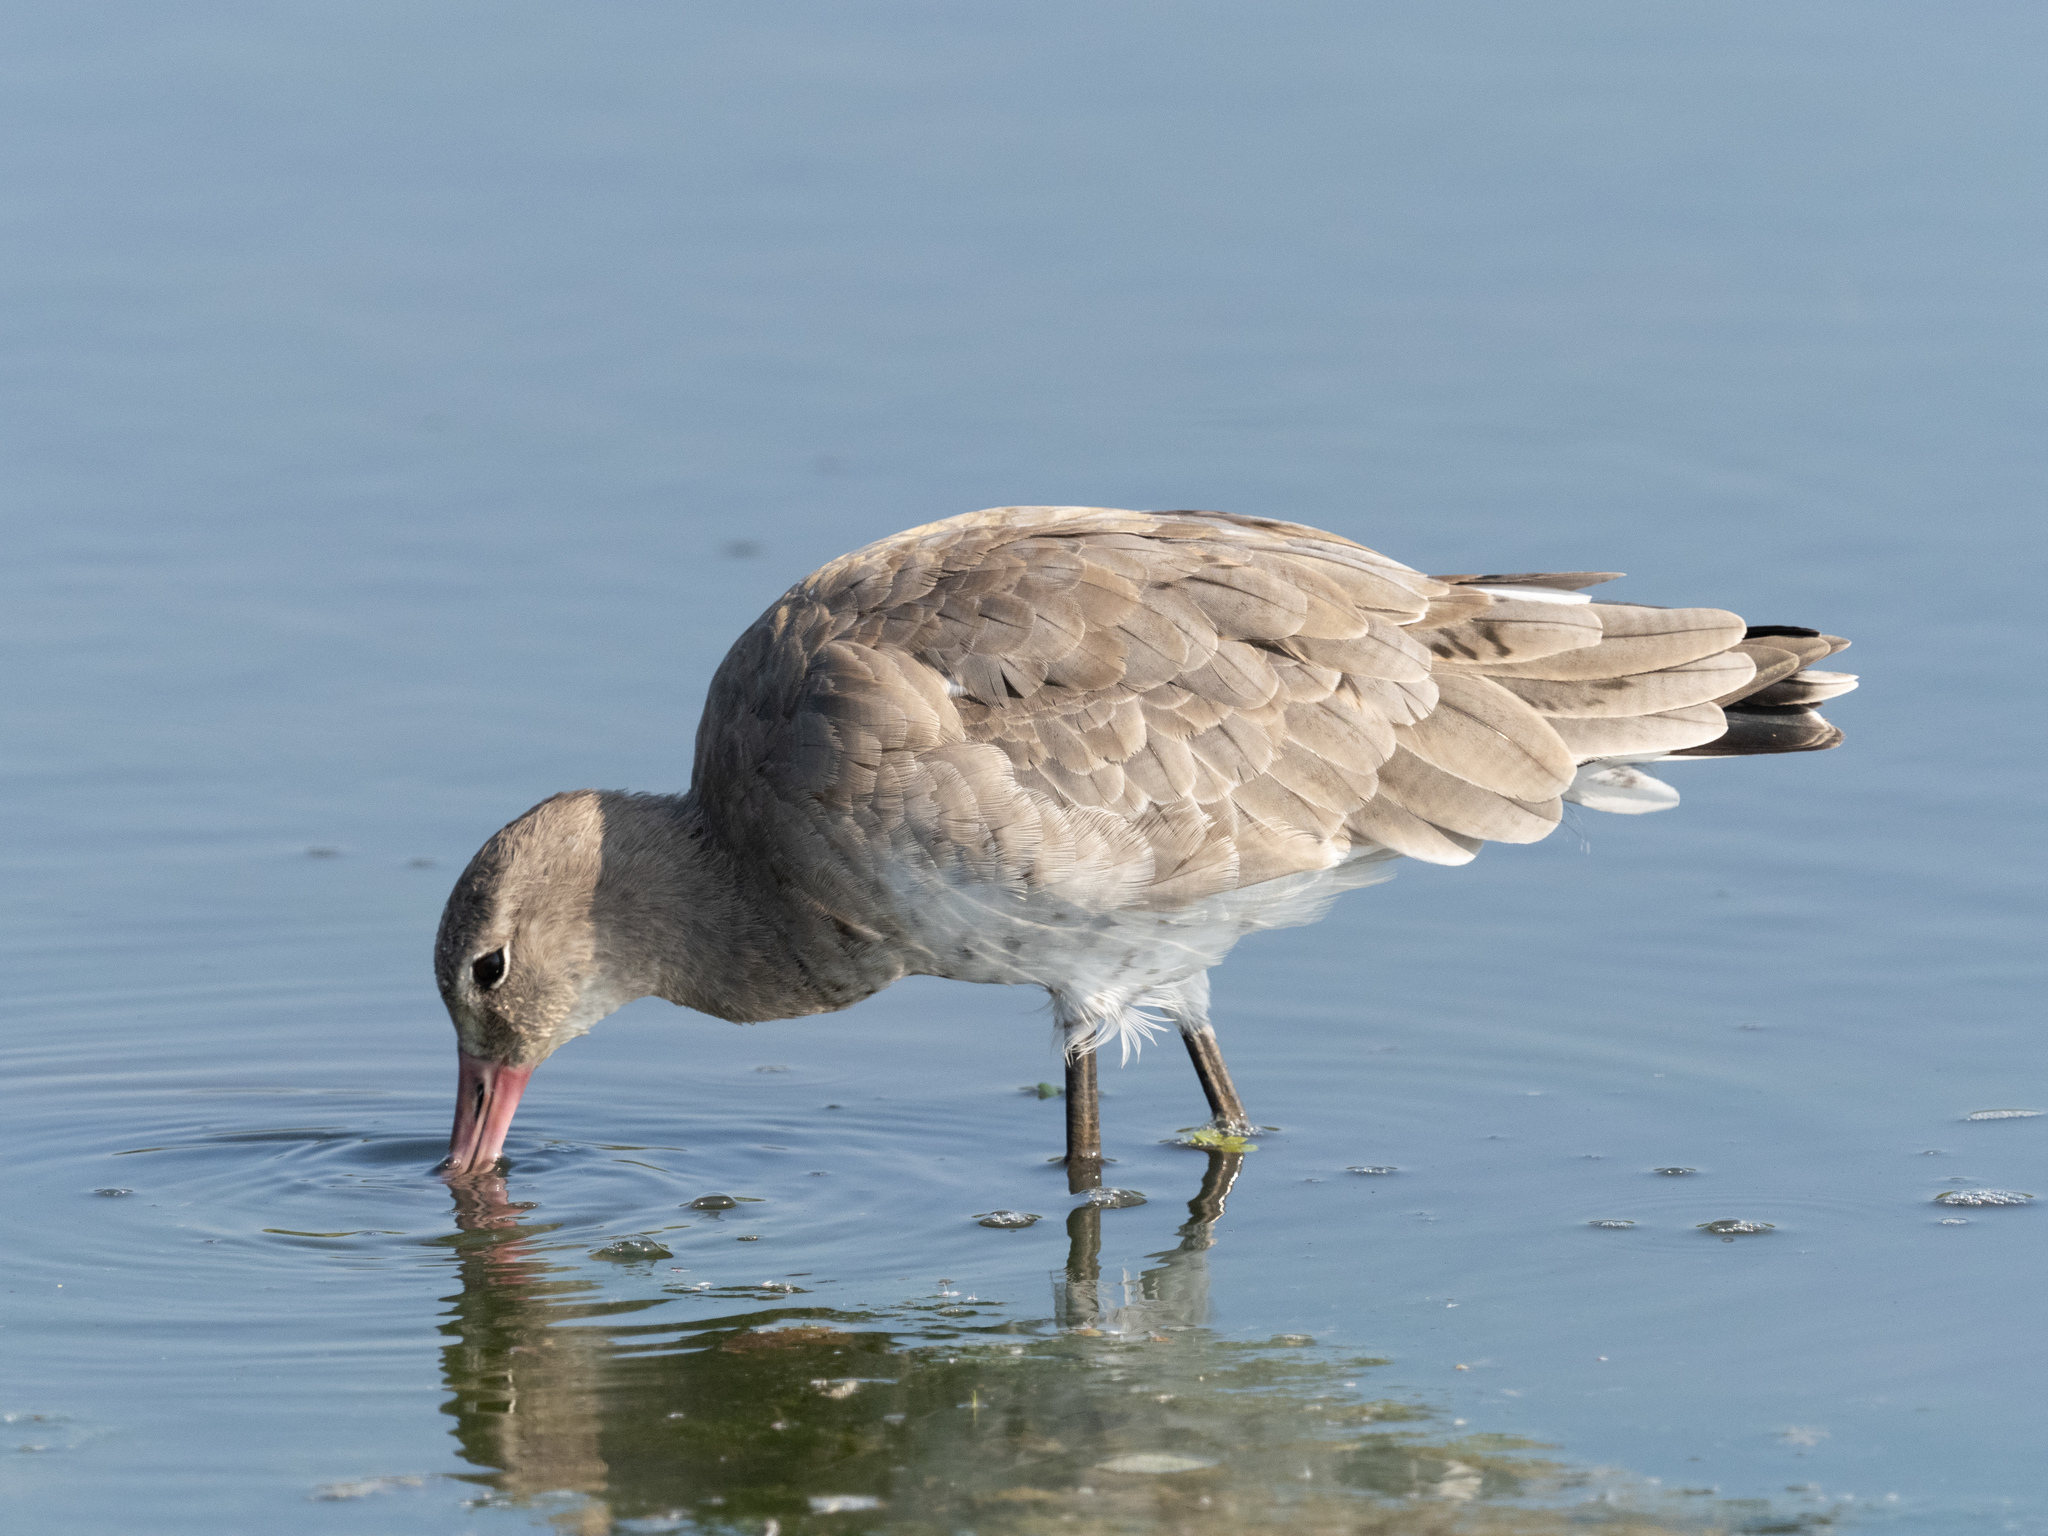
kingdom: Animalia
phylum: Chordata
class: Aves
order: Charadriiformes
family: Scolopacidae
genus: Limosa
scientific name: Limosa limosa
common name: Black-tailed godwit
